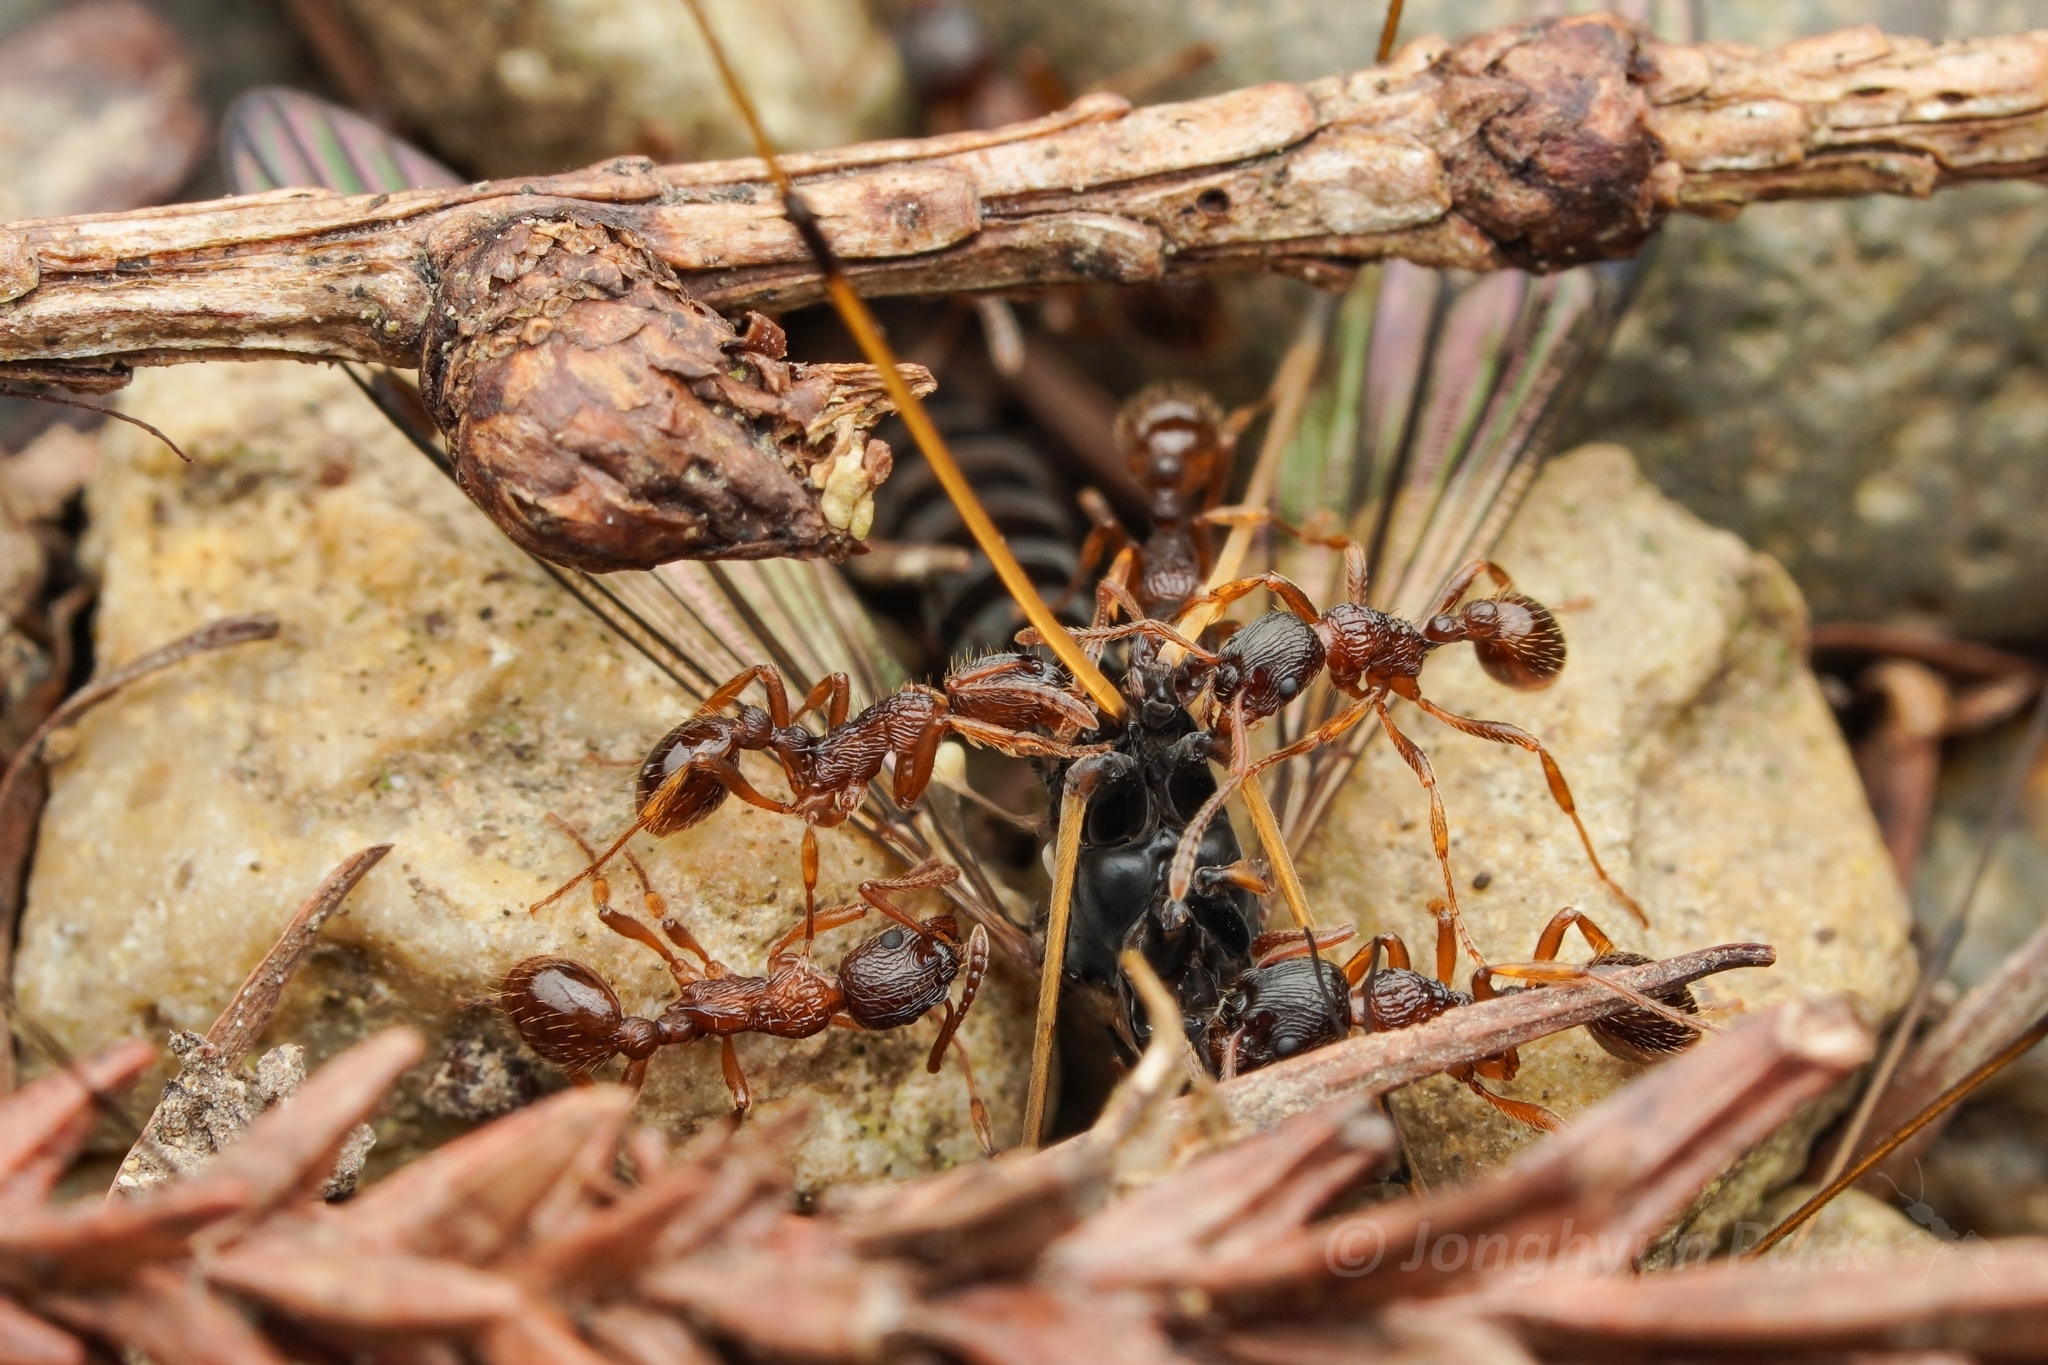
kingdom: Animalia
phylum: Arthropoda
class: Insecta
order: Hymenoptera
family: Formicidae
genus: Myrmica
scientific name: Myrmica kotokui
